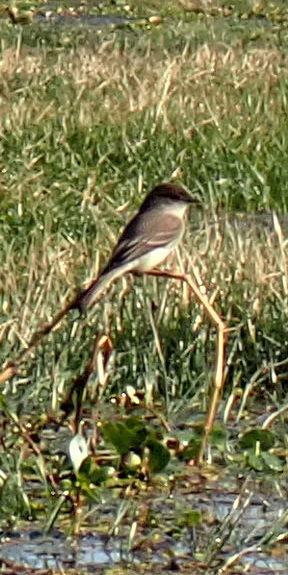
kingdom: Animalia
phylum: Chordata
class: Aves
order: Passeriformes
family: Tyrannidae
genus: Sayornis
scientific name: Sayornis phoebe
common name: Eastern phoebe
